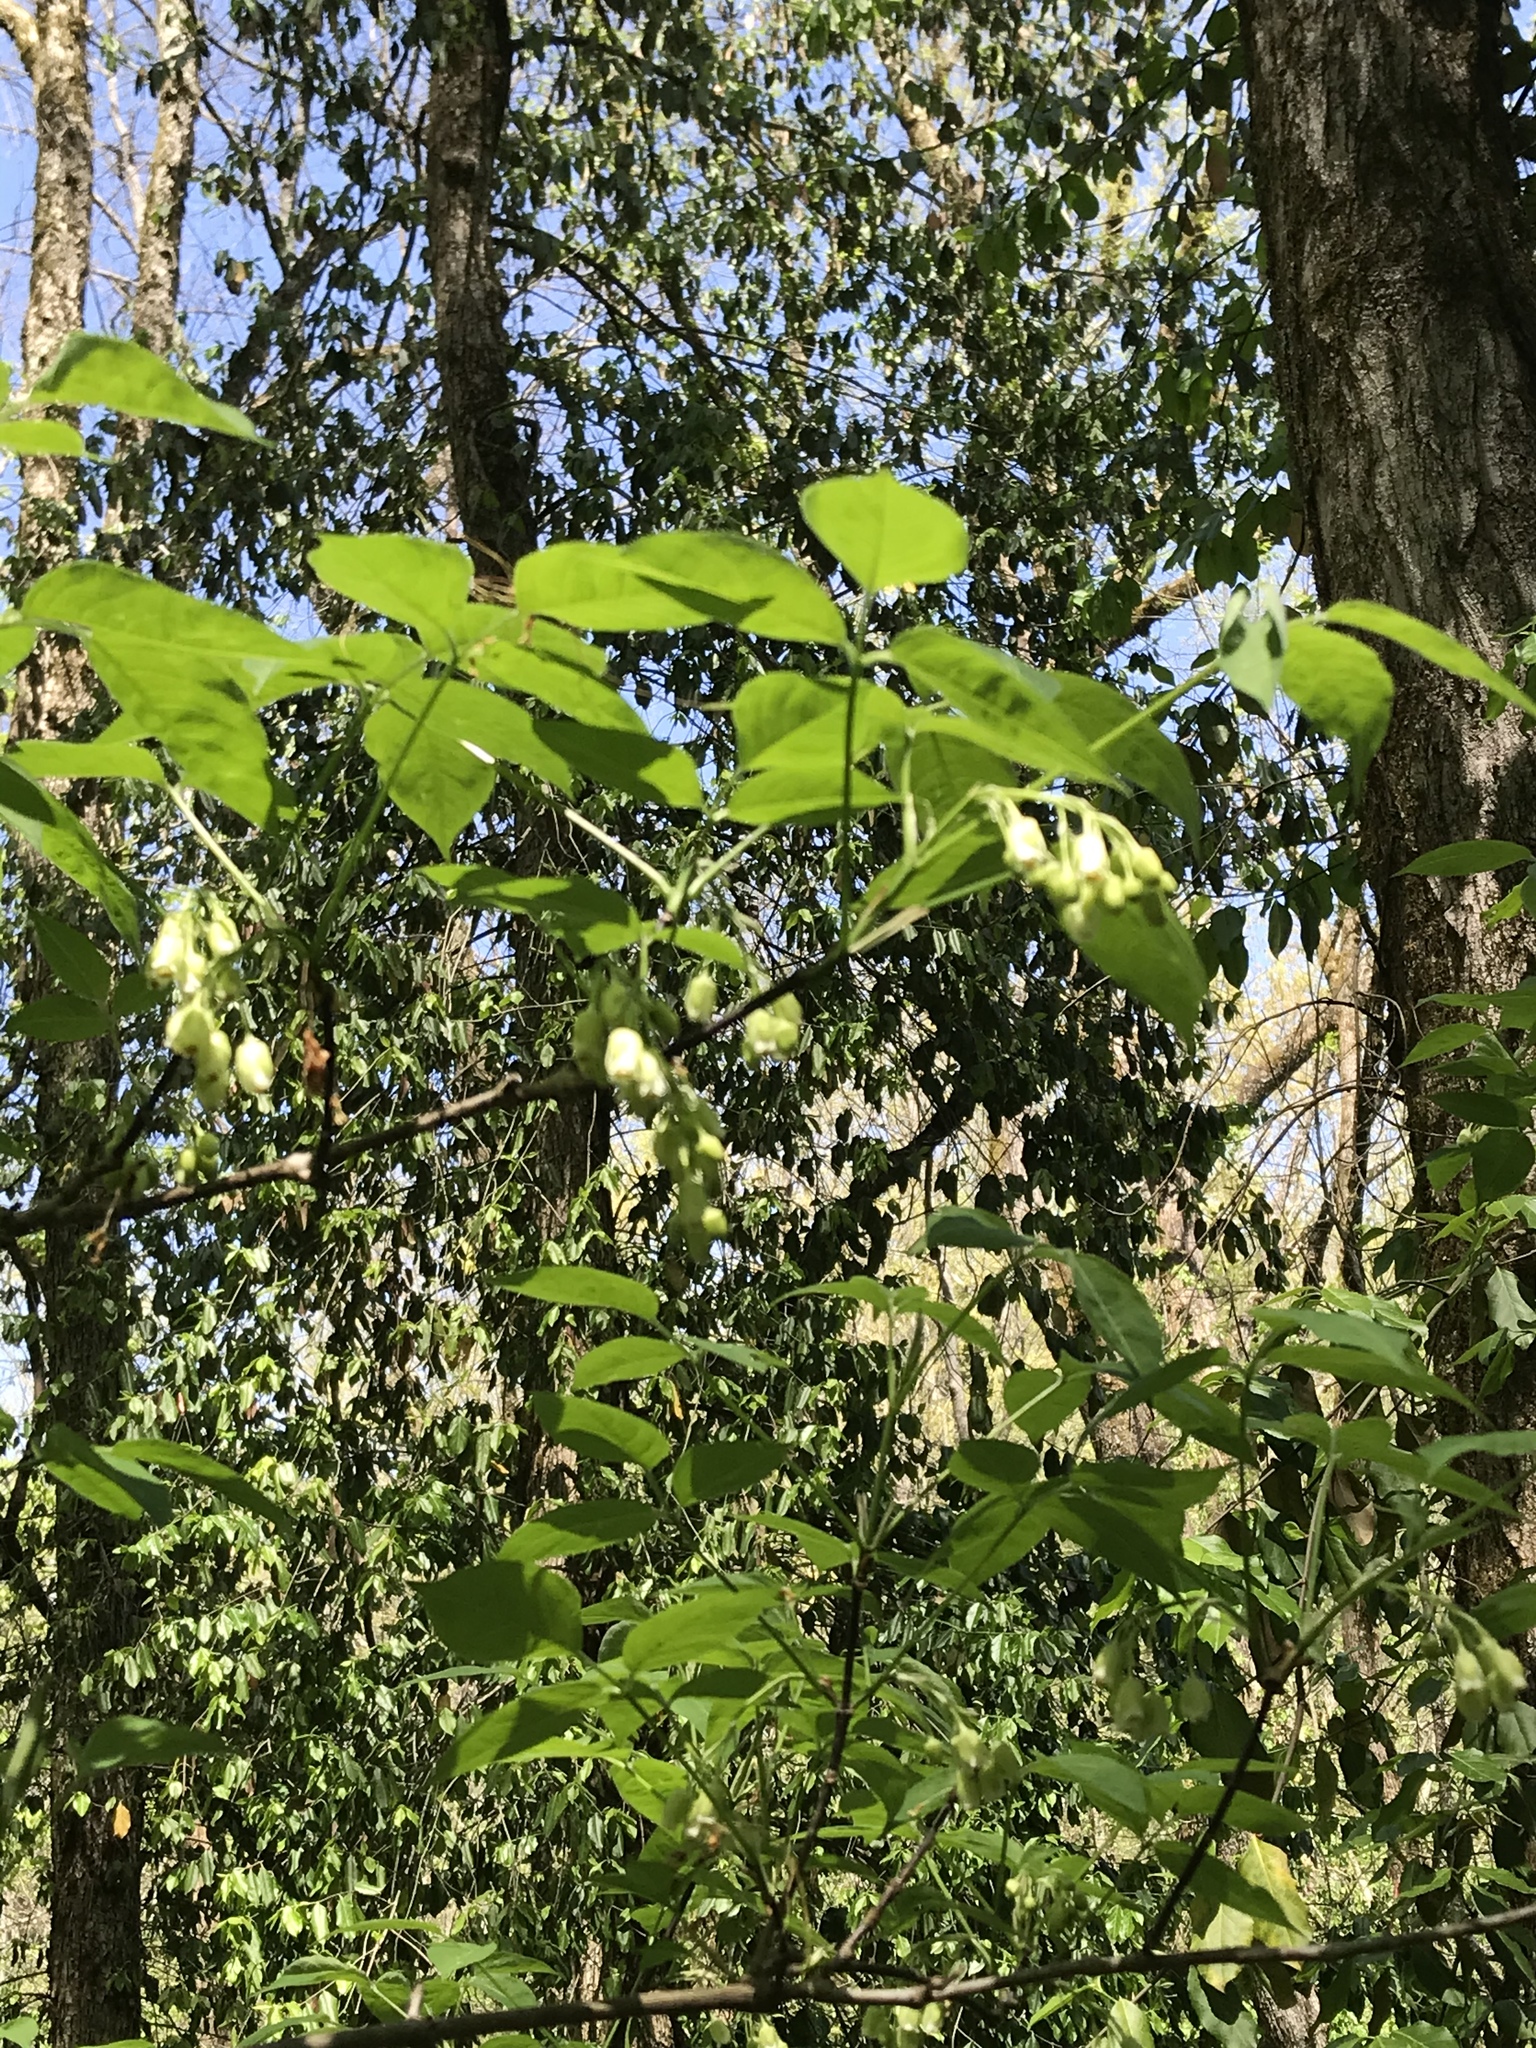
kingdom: Plantae
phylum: Tracheophyta
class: Magnoliopsida
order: Crossosomatales
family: Staphyleaceae
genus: Staphylea
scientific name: Staphylea trifolia
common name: American bladdernut
